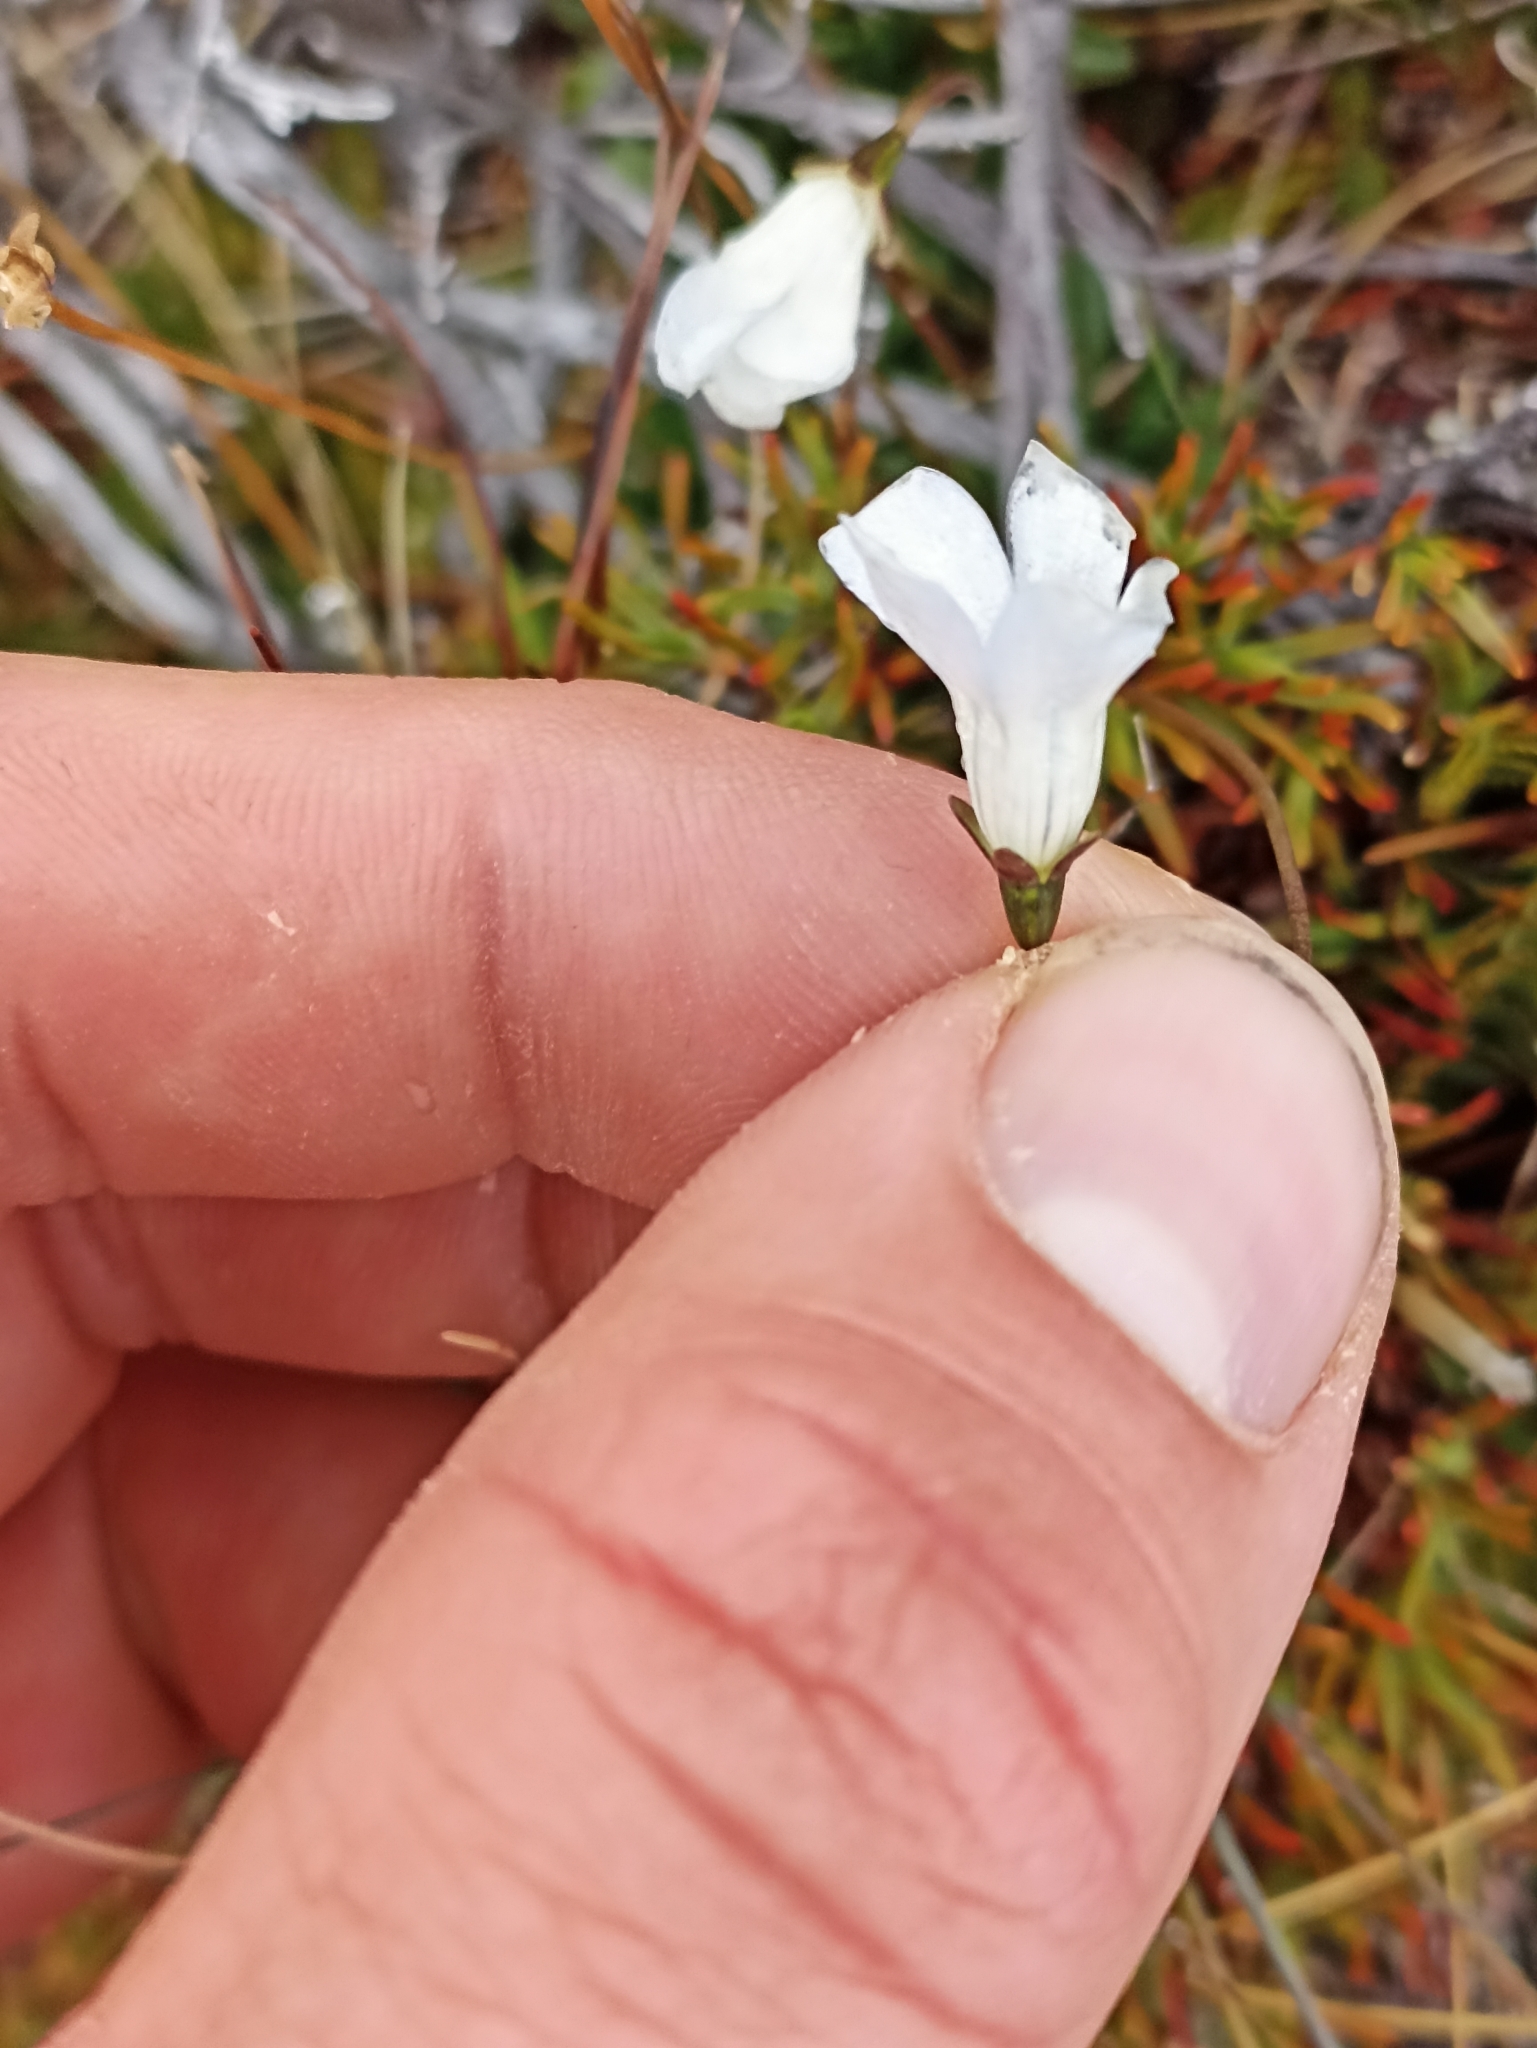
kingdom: Plantae
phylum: Tracheophyta
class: Magnoliopsida
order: Asterales
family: Campanulaceae
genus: Wahlenbergia
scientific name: Wahlenbergia albomarginata
